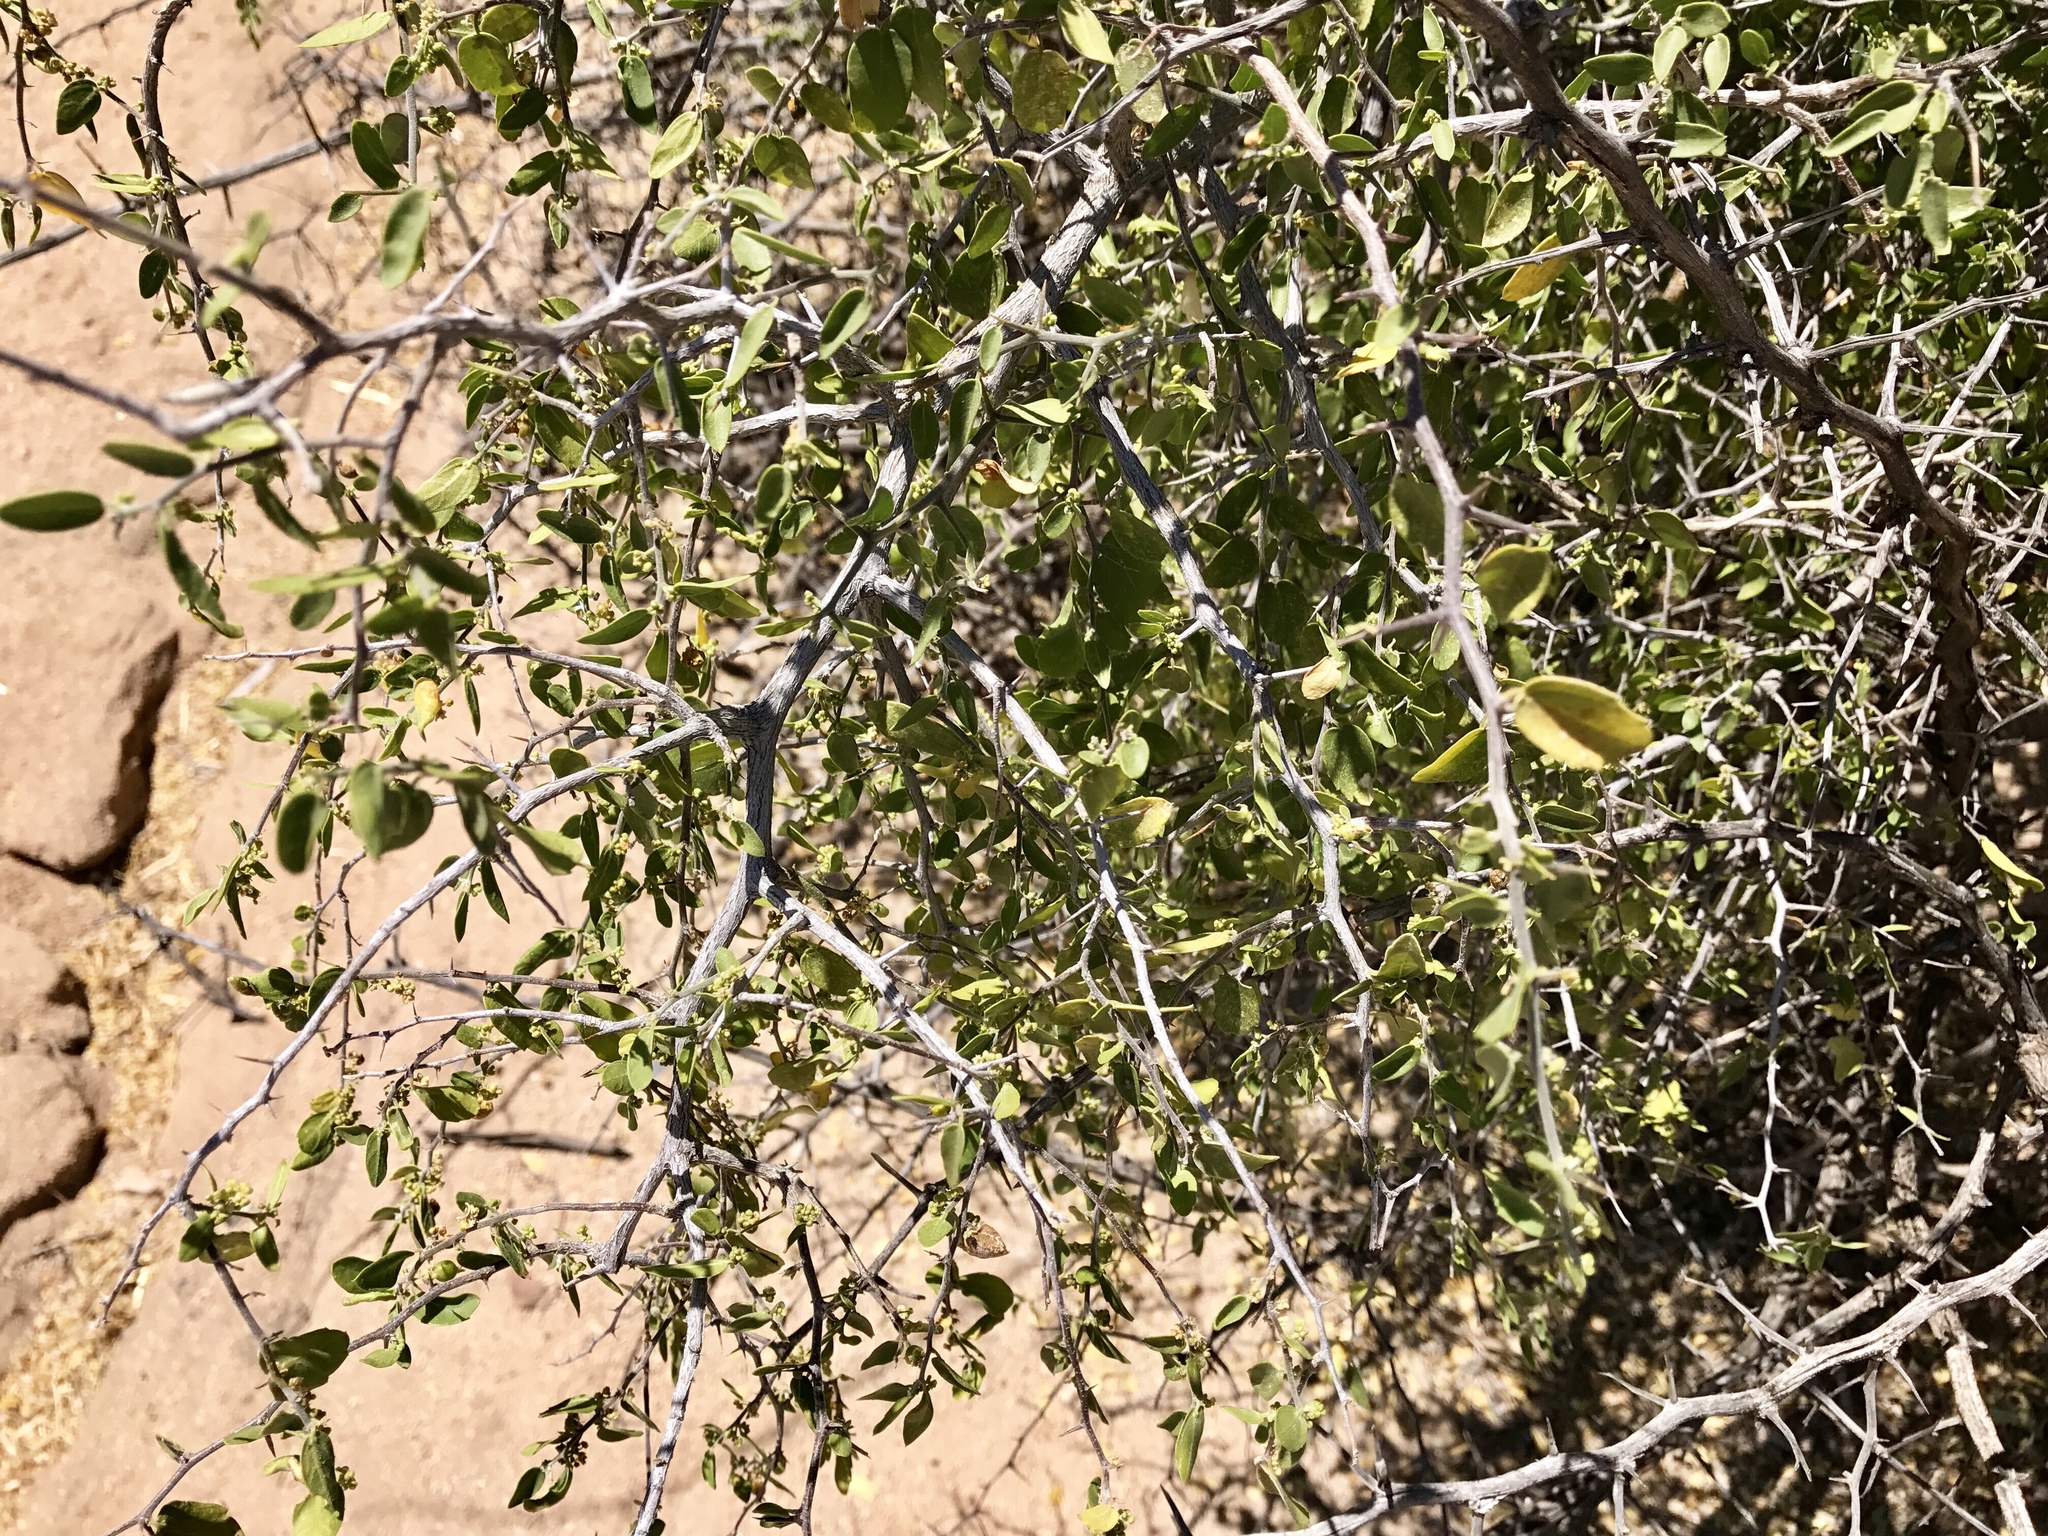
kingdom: Plantae
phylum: Tracheophyta
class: Magnoliopsida
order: Rosales
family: Cannabaceae
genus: Celtis
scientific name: Celtis pallida
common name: Desert hackberry
